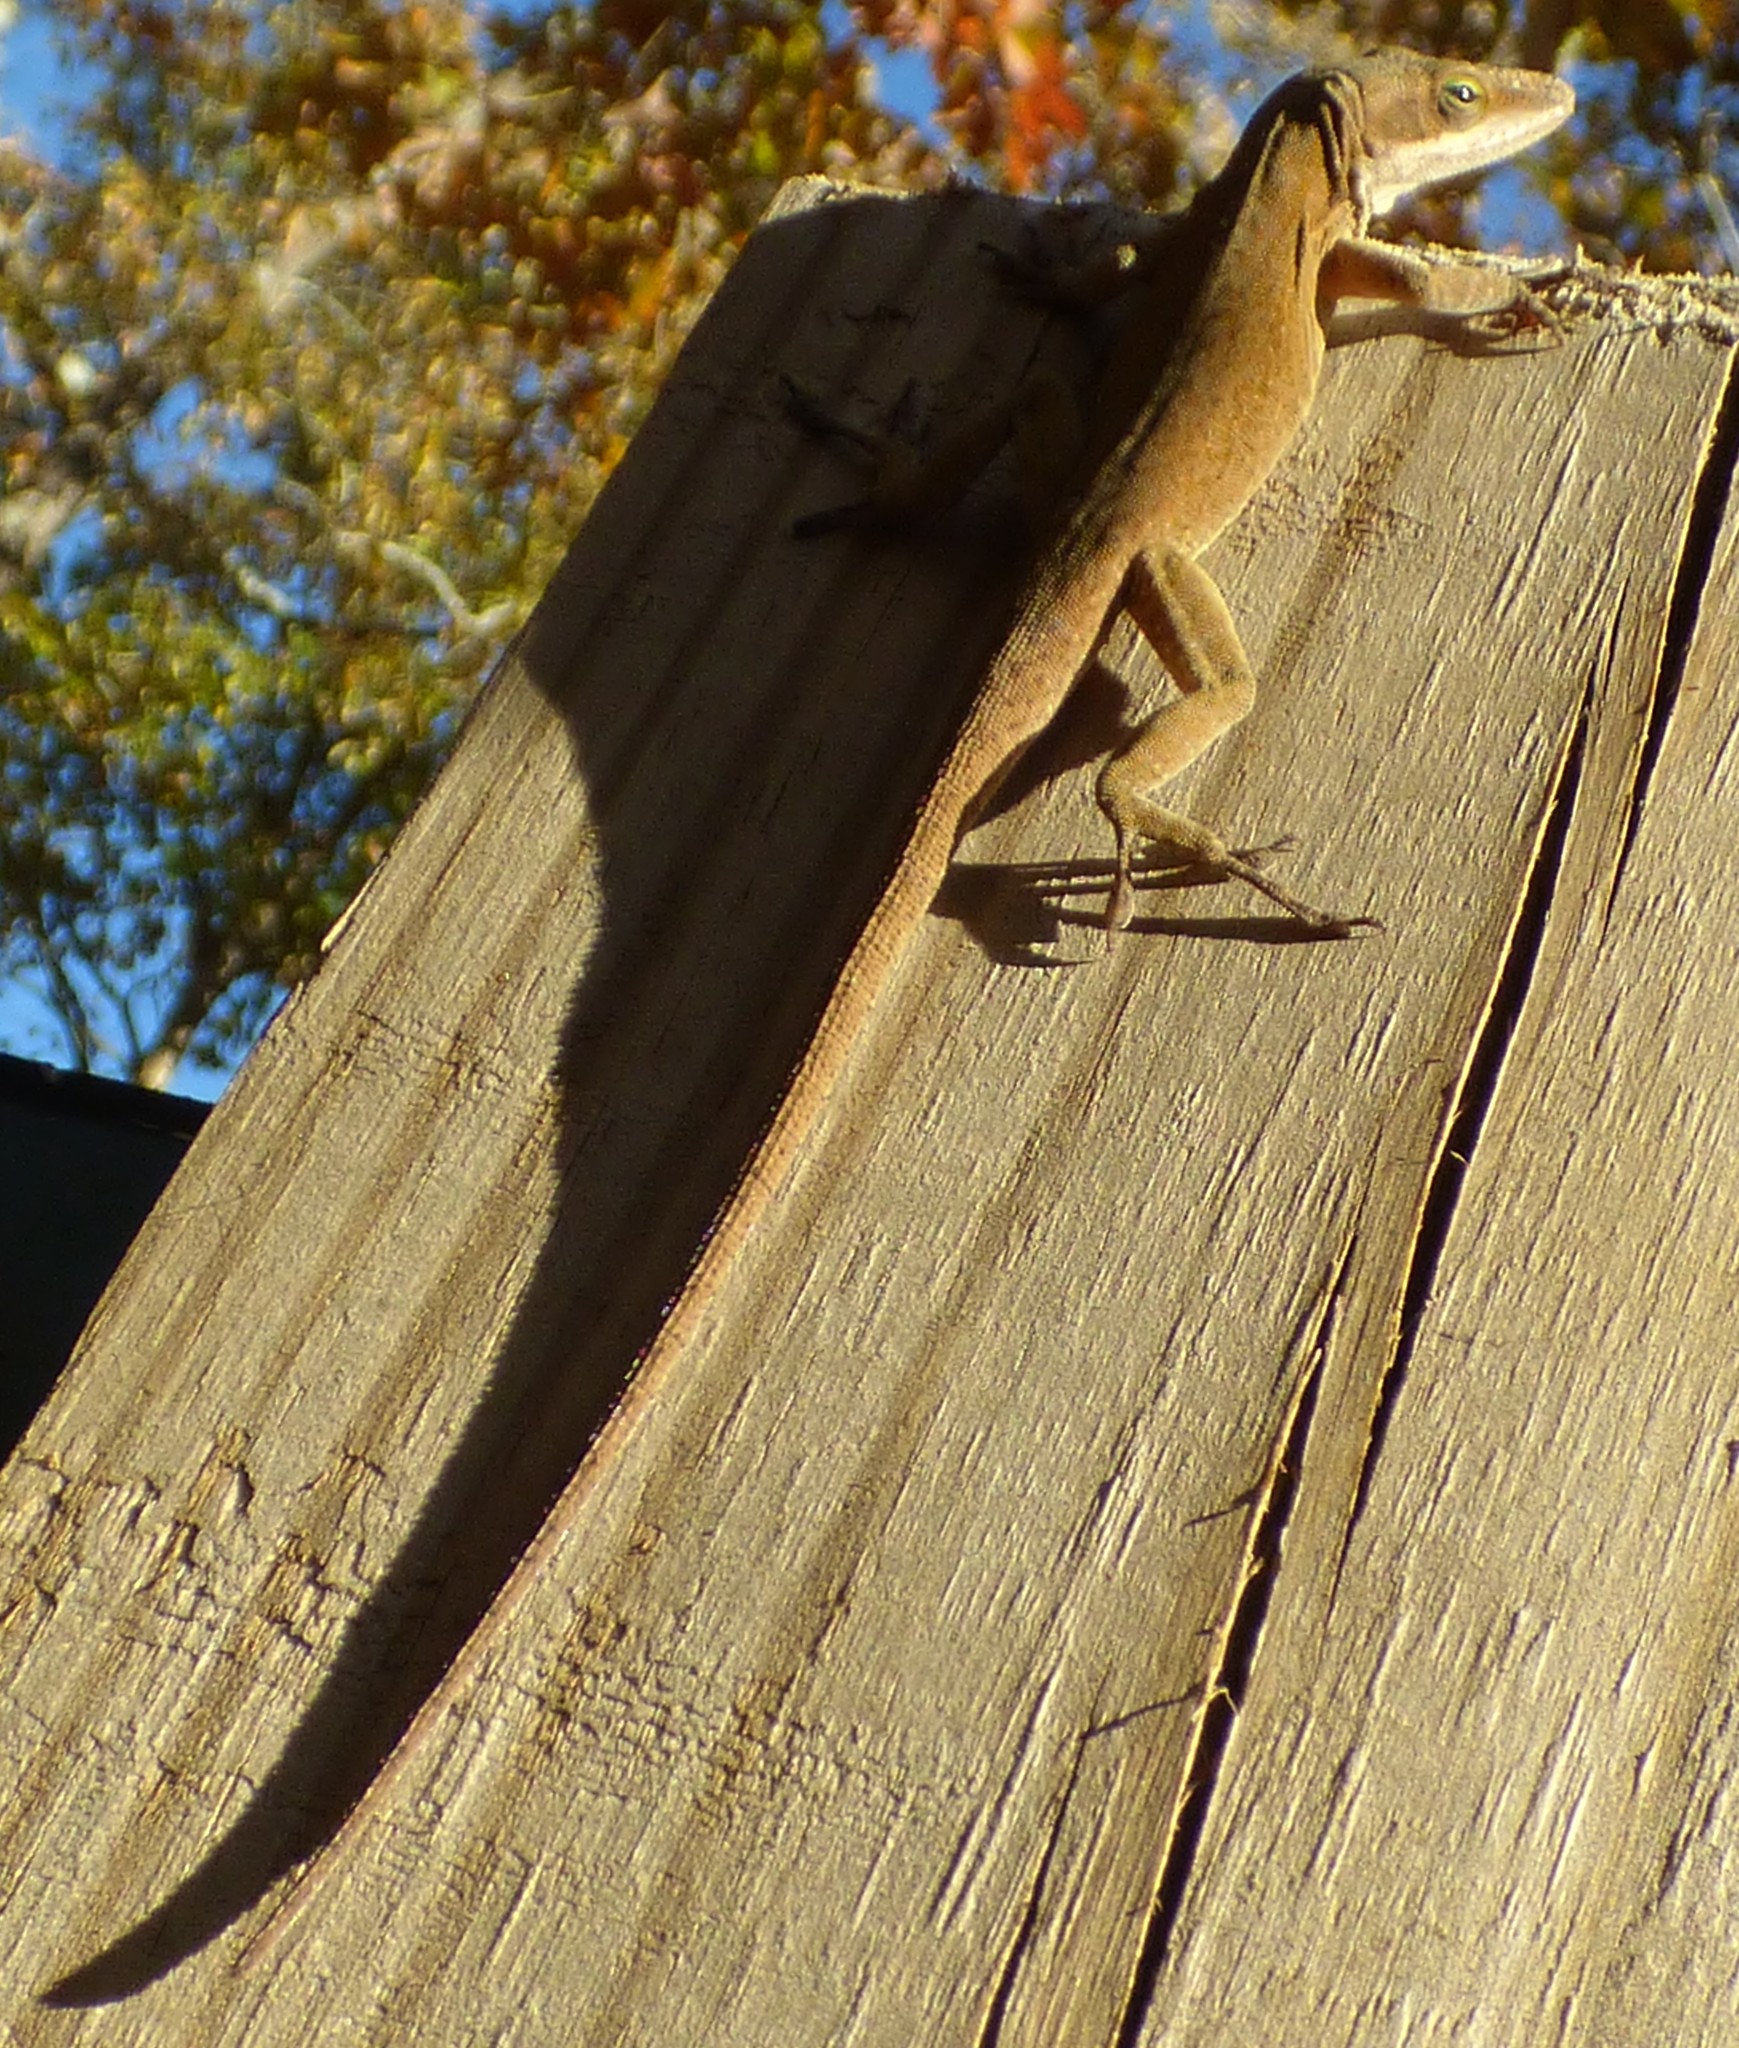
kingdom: Animalia
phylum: Chordata
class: Squamata
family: Dactyloidae
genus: Anolis
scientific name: Anolis carolinensis
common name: Green anole
